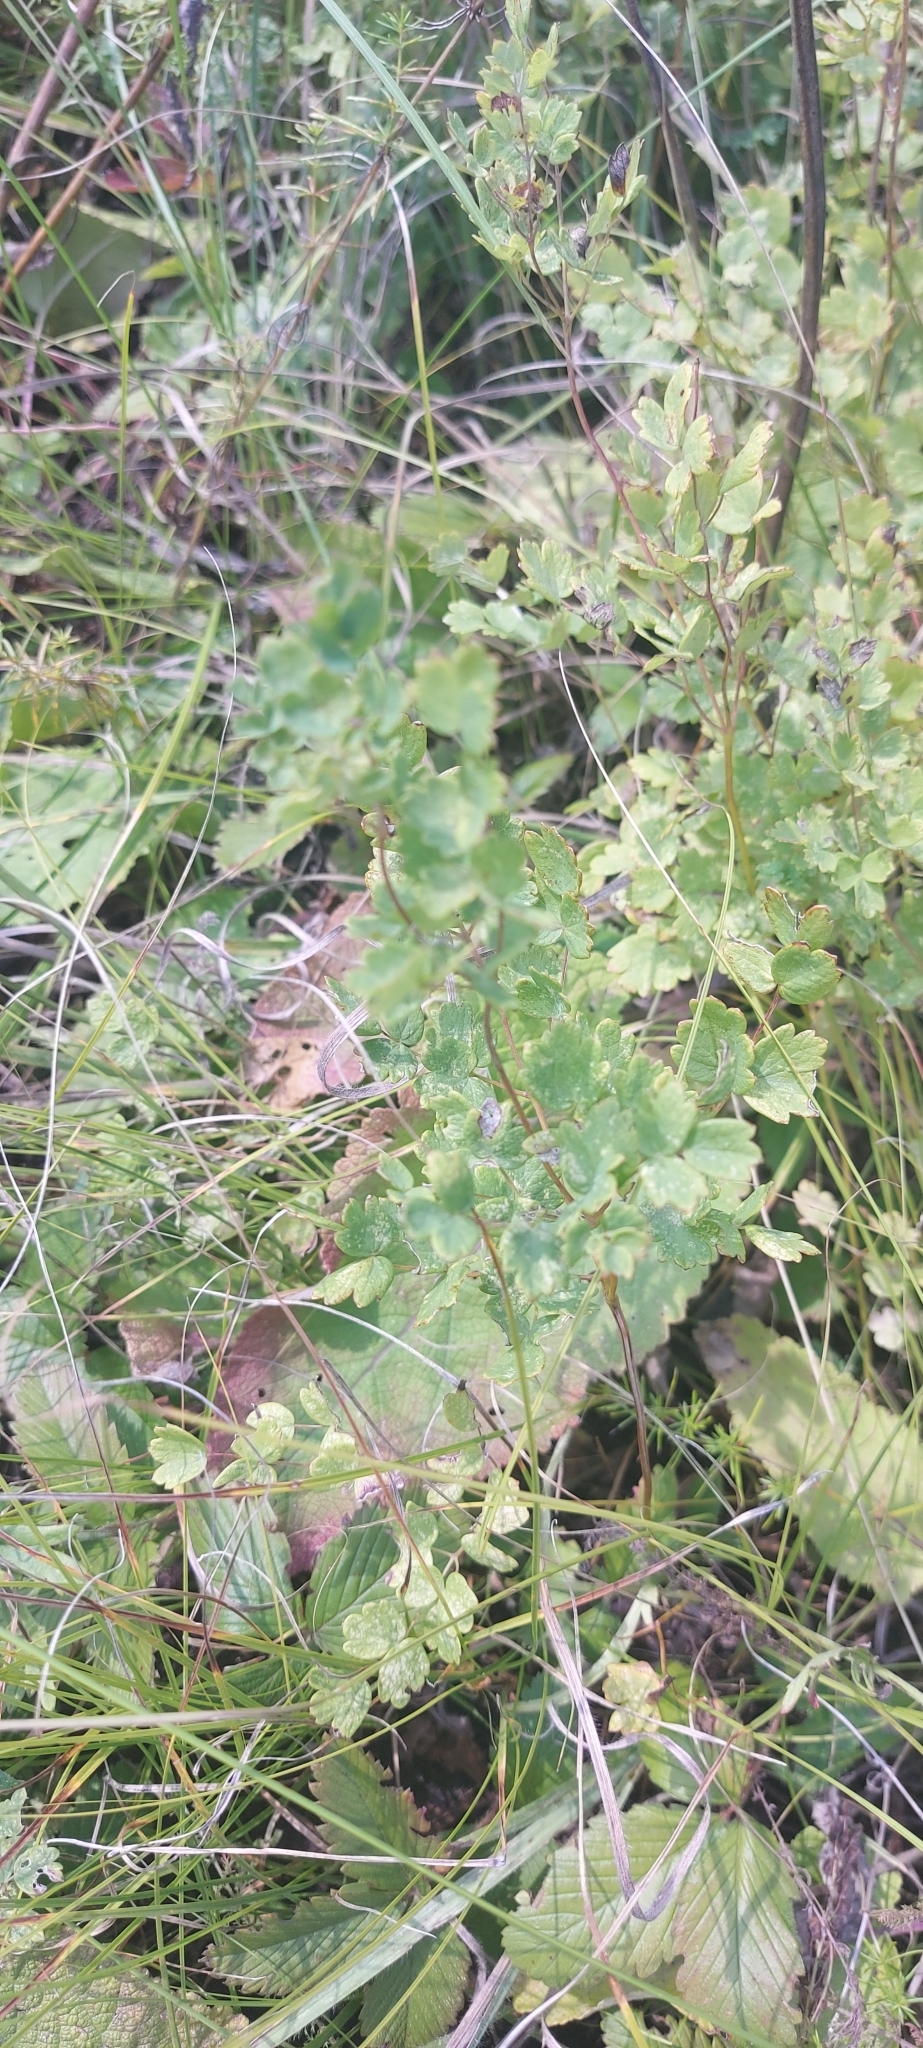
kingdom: Plantae
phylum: Tracheophyta
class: Magnoliopsida
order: Ranunculales
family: Ranunculaceae
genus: Thalictrum
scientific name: Thalictrum minus
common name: Lesser meadow-rue
